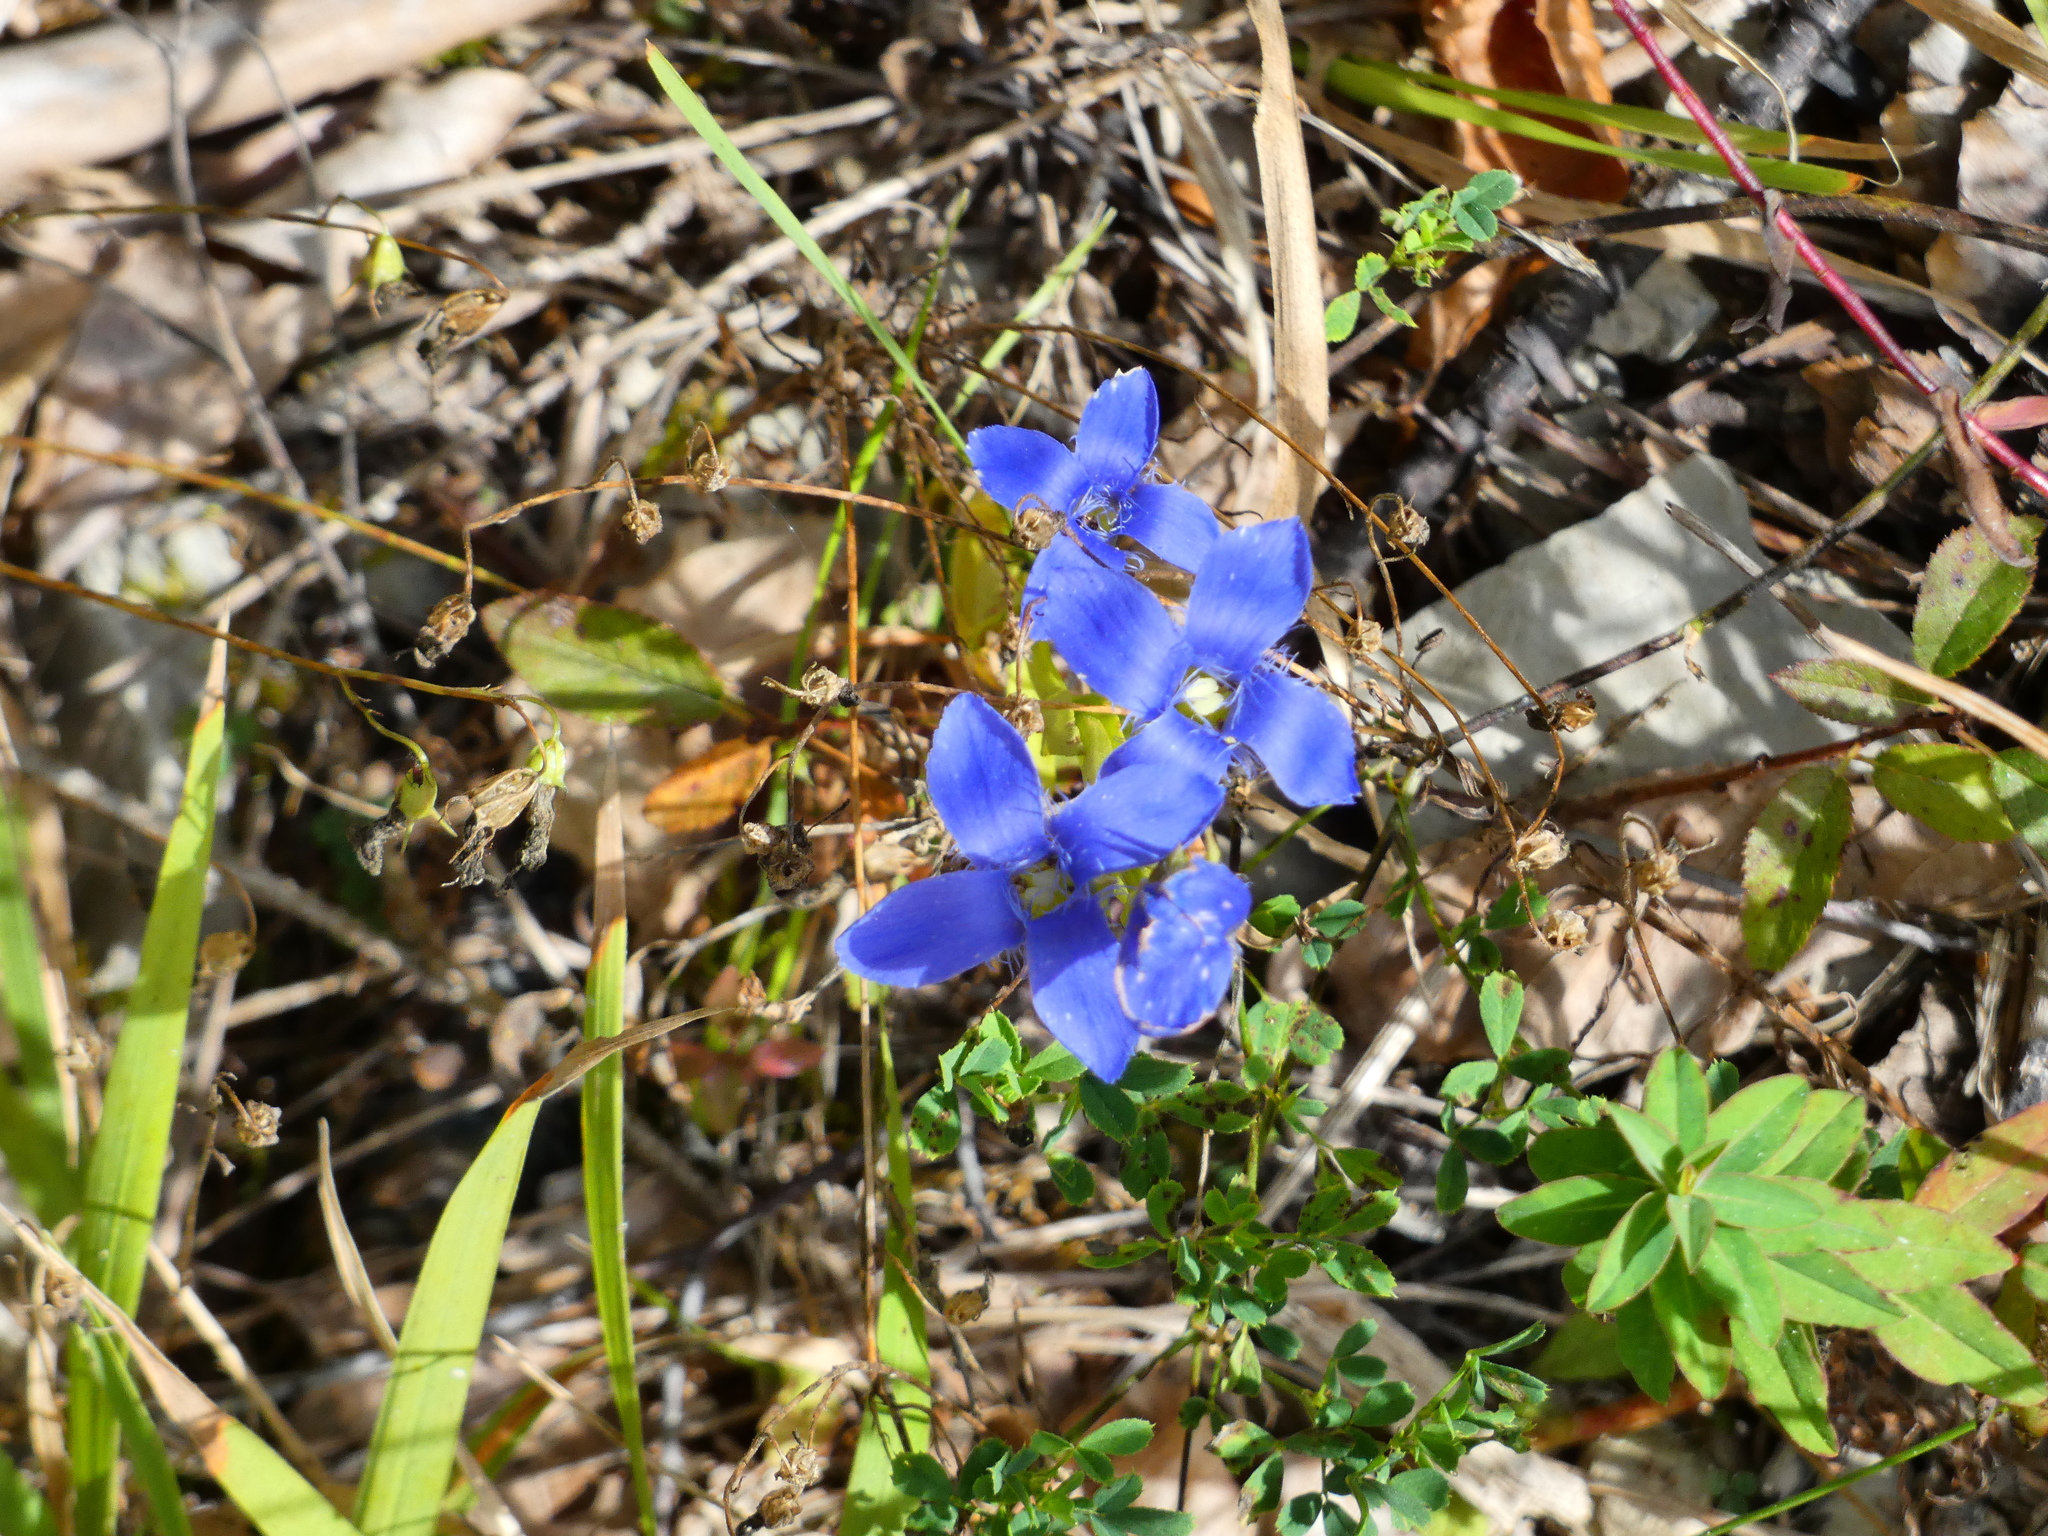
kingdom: Plantae
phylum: Tracheophyta
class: Magnoliopsida
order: Gentianales
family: Gentianaceae
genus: Gentianopsis
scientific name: Gentianopsis ciliata
